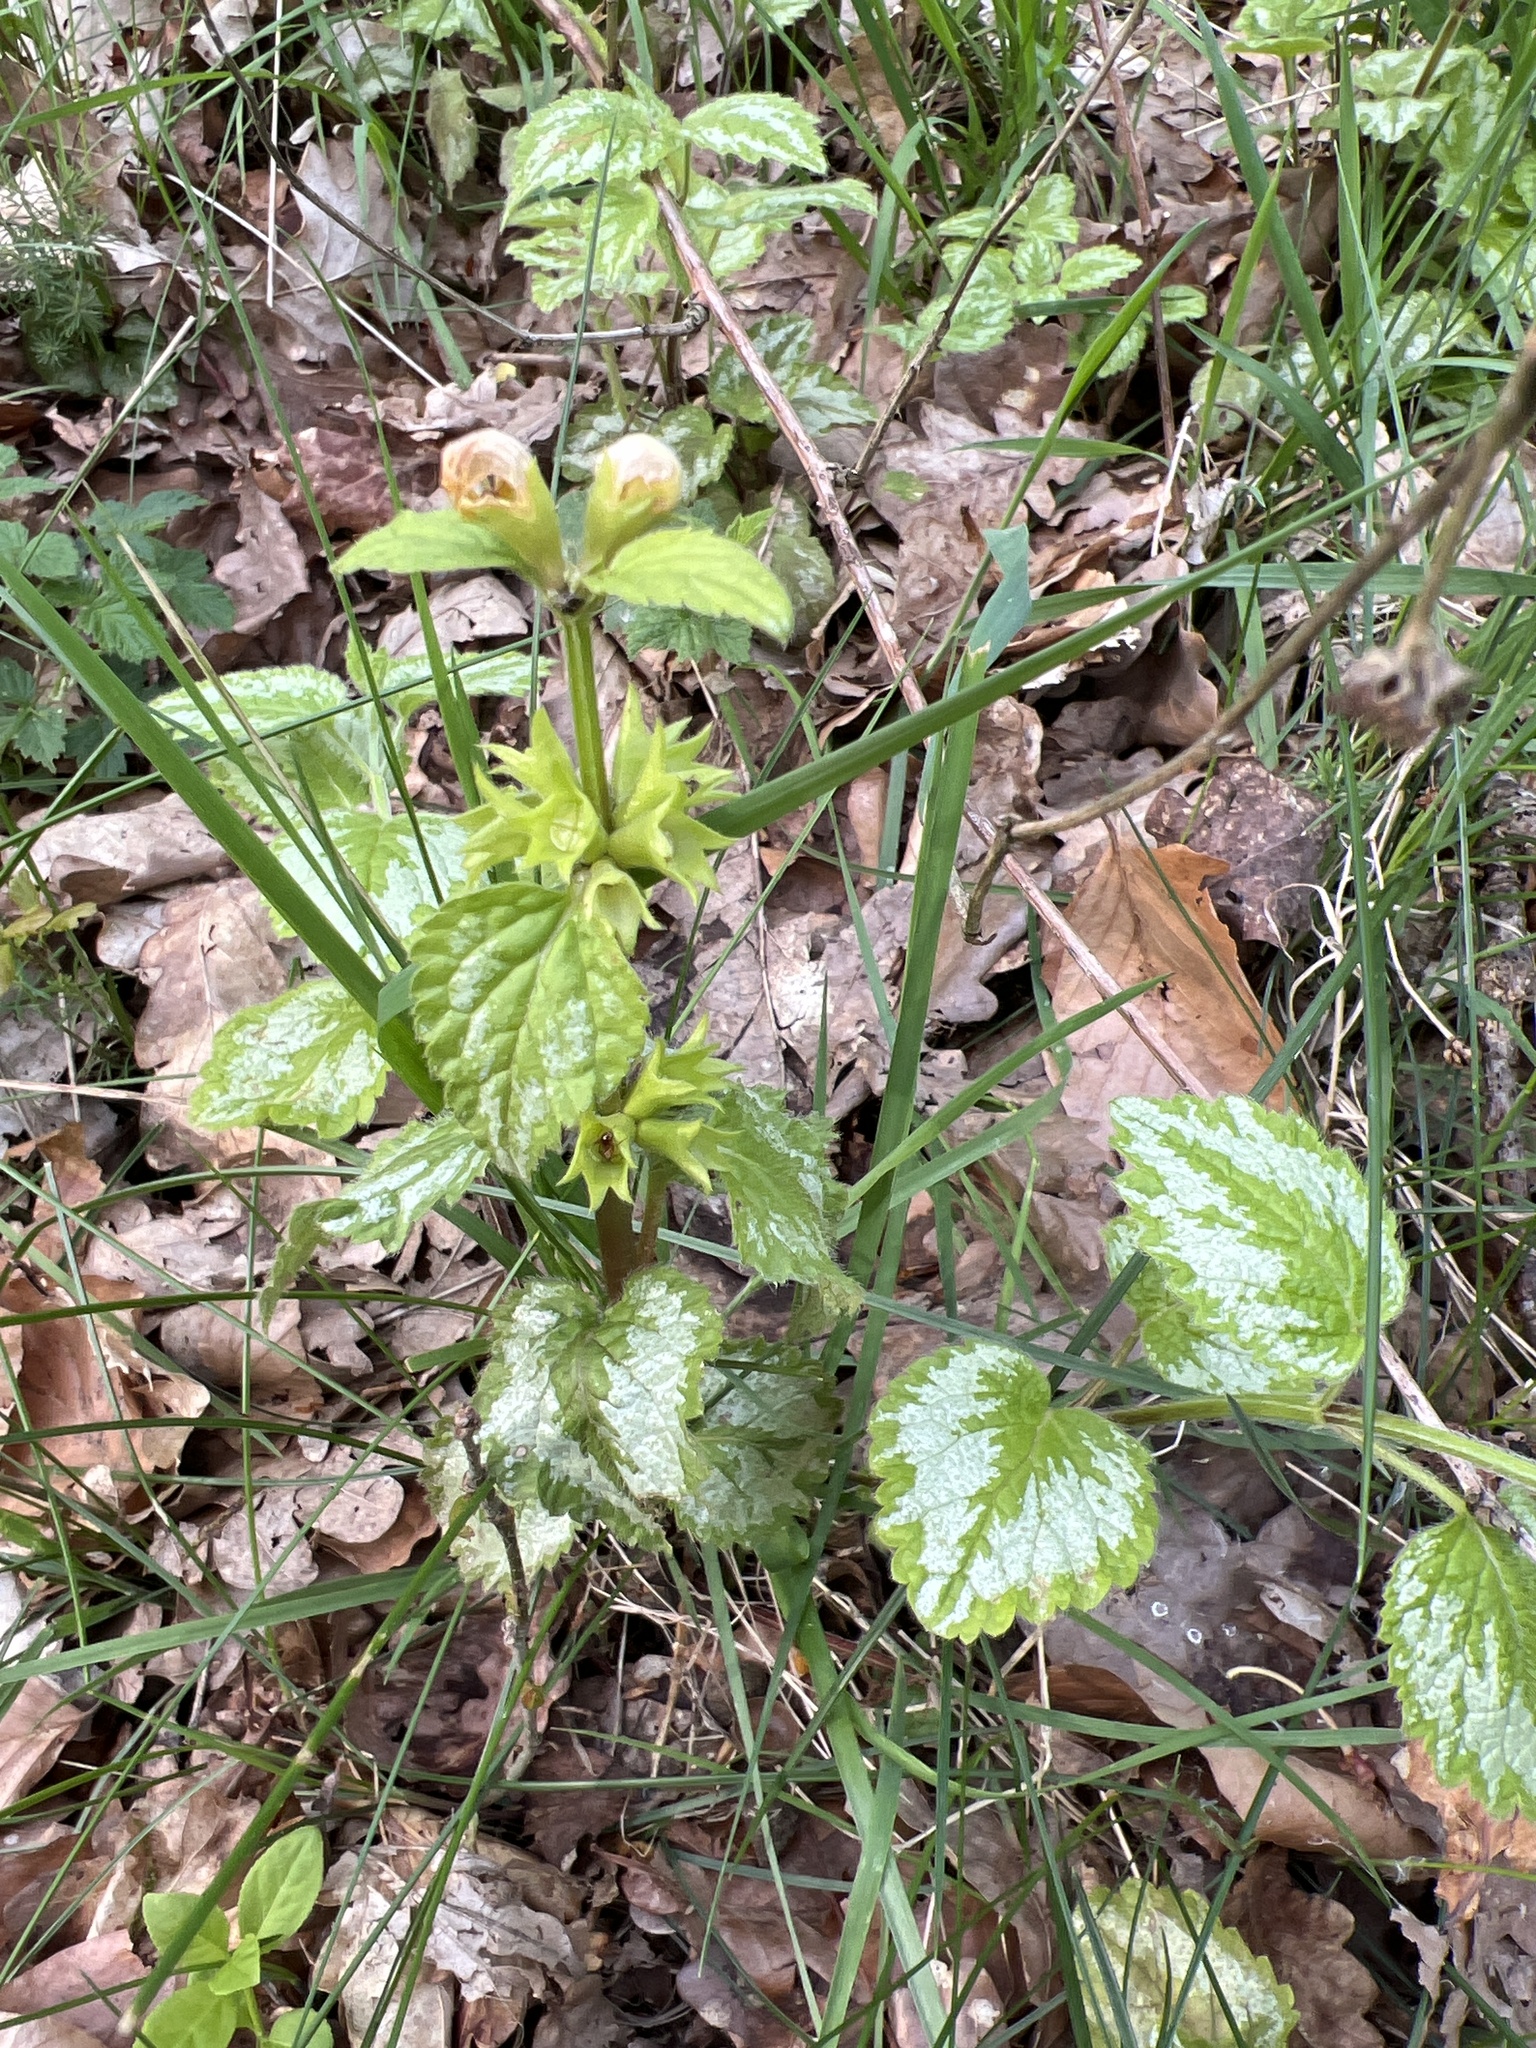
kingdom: Plantae
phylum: Tracheophyta
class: Magnoliopsida
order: Lamiales
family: Lamiaceae
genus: Lamium
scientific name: Lamium galeobdolon
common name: Yellow archangel
